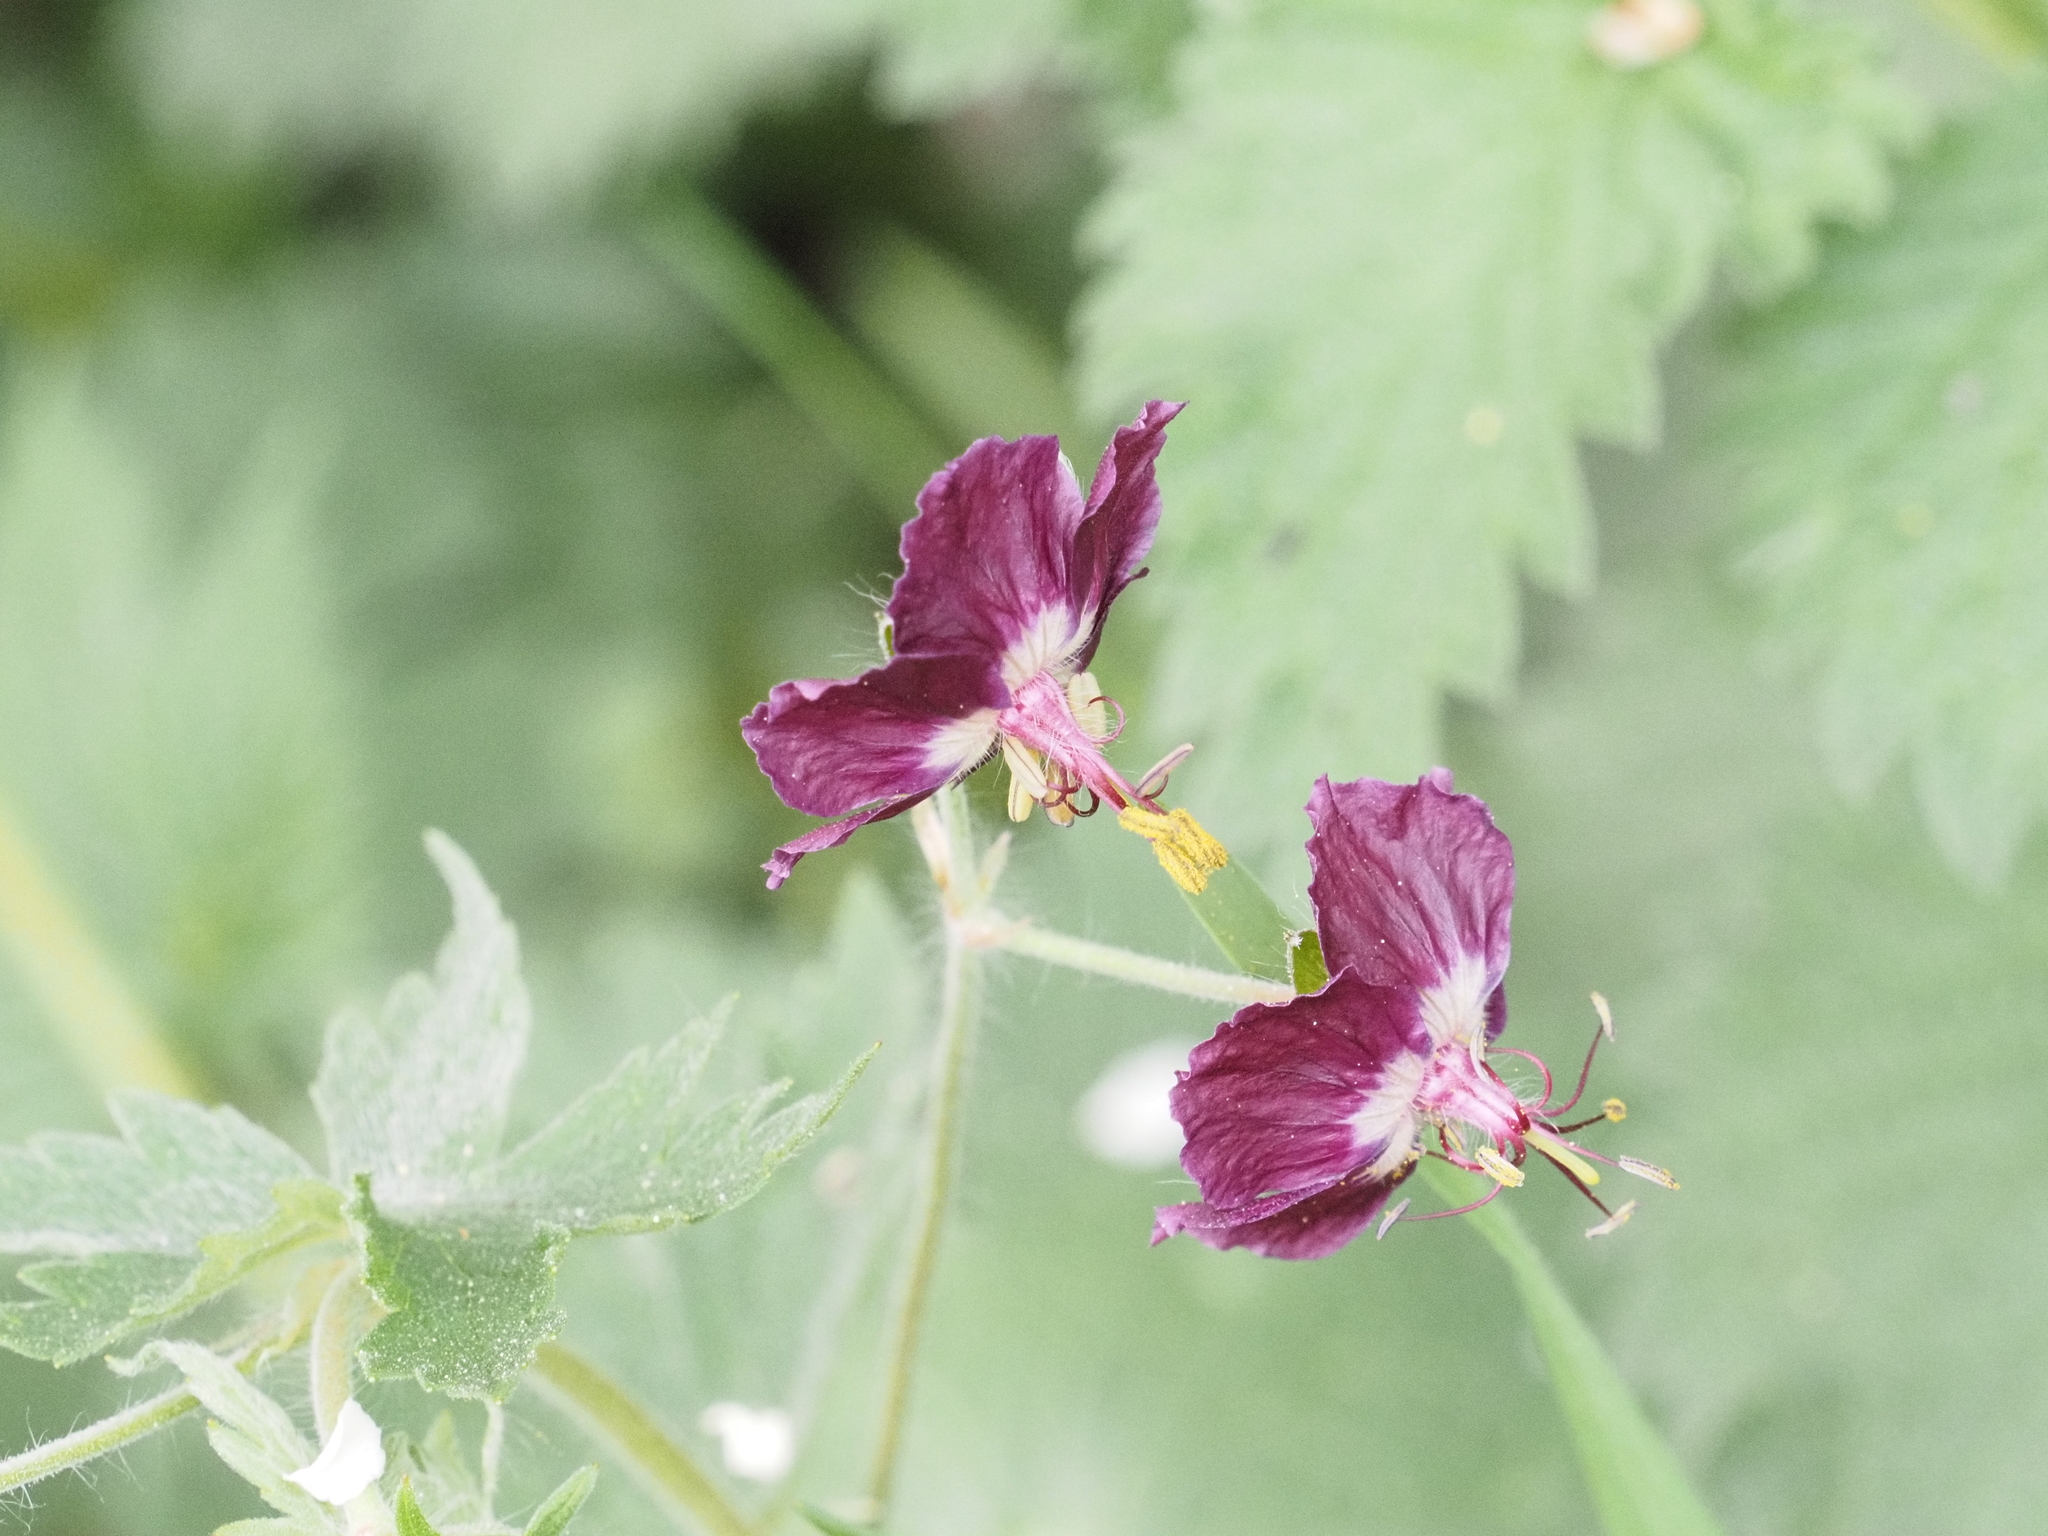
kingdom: Plantae
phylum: Tracheophyta
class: Magnoliopsida
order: Geraniales
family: Geraniaceae
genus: Geranium
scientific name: Geranium phaeum
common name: Dusky crane's-bill
